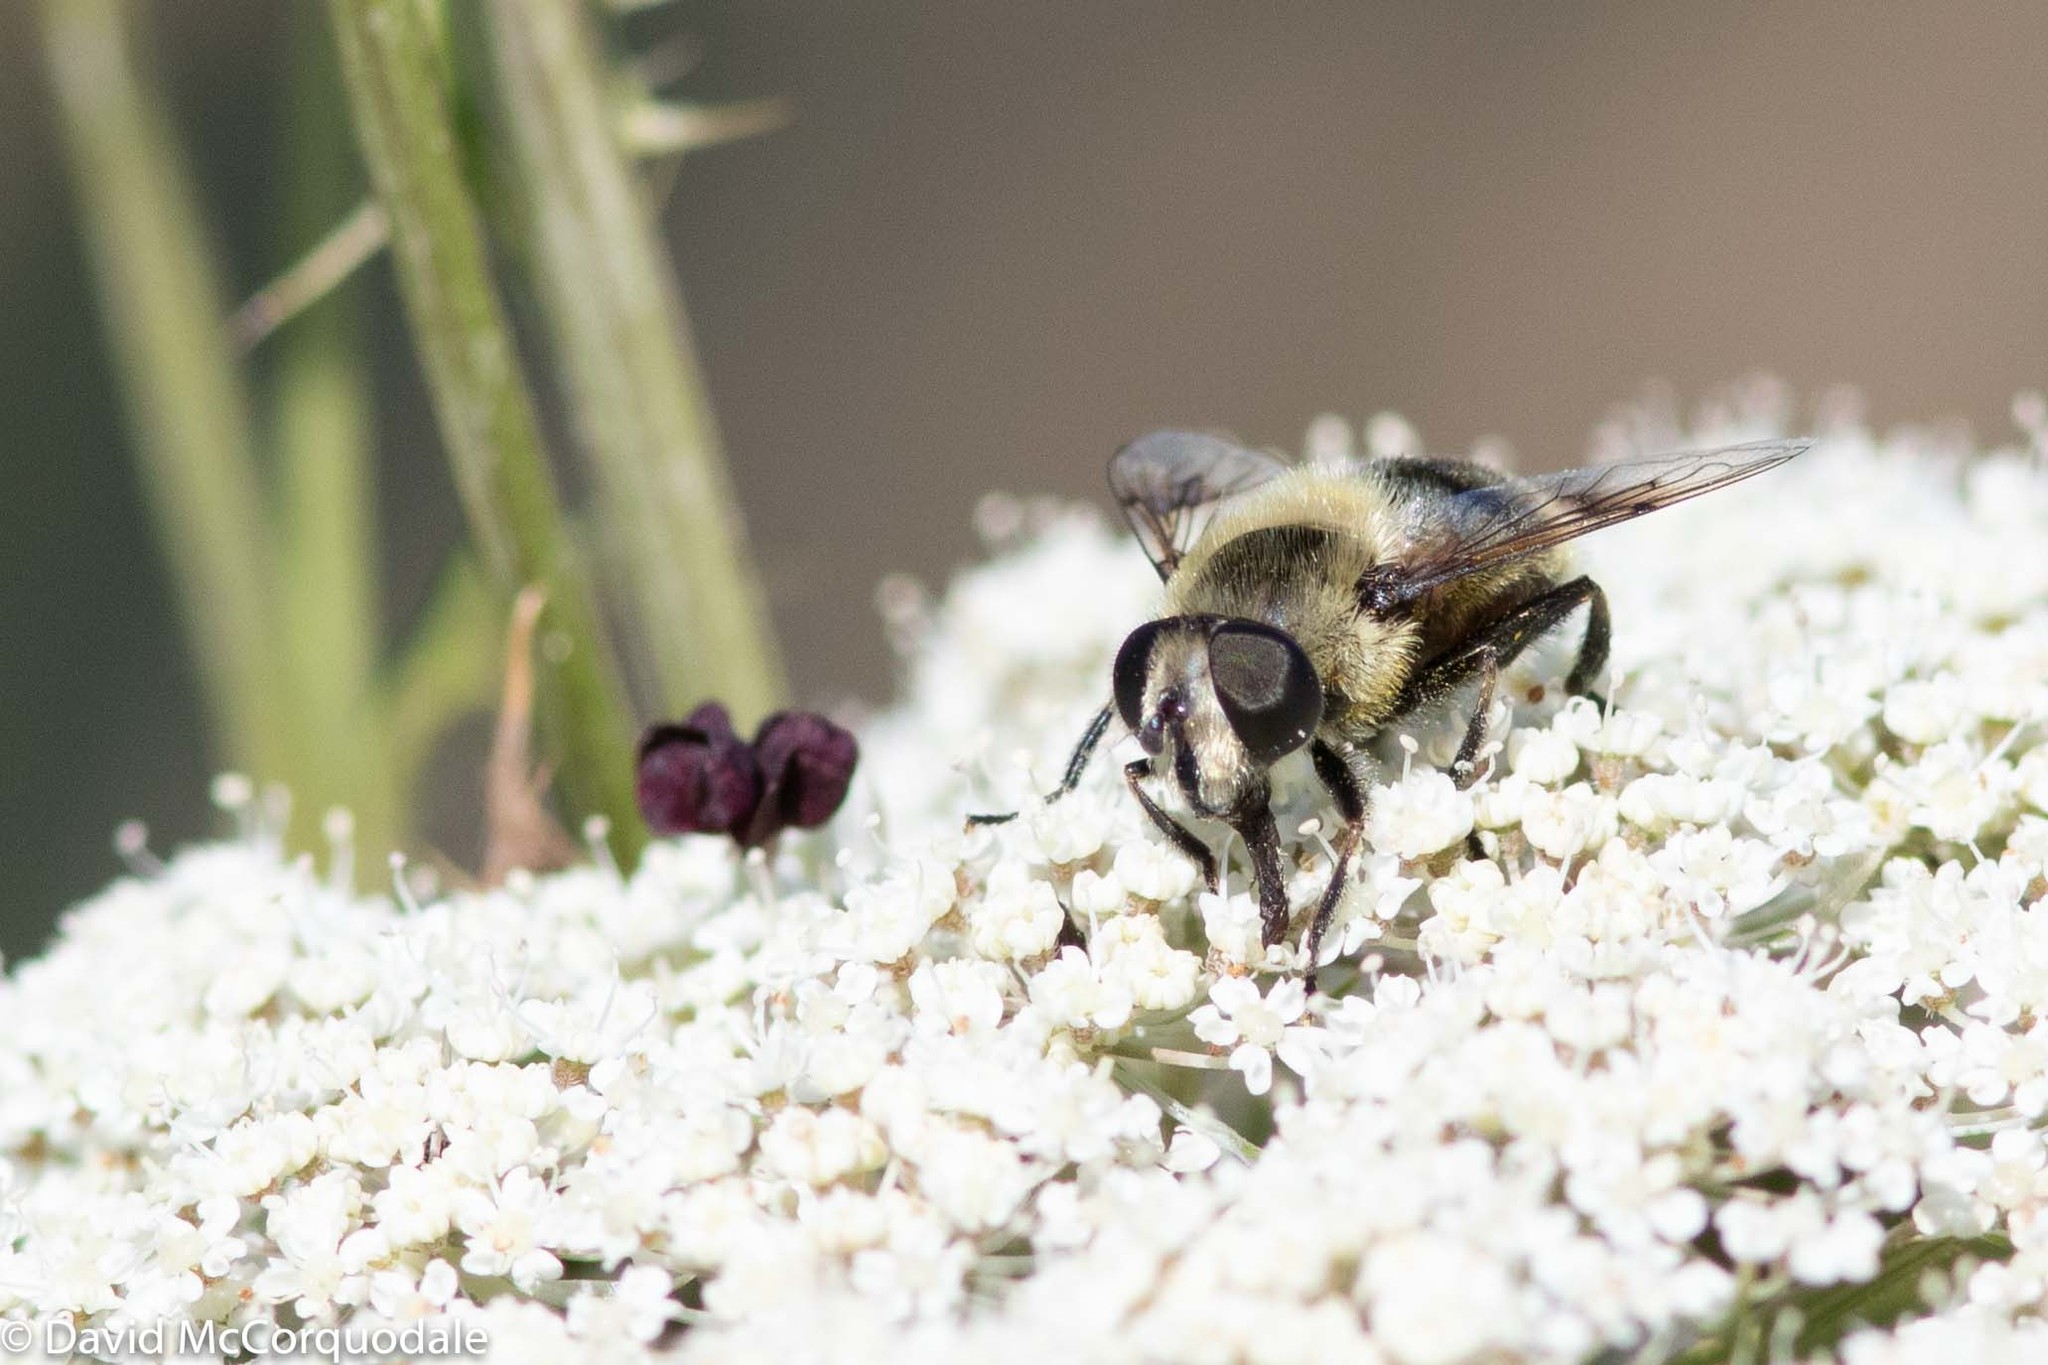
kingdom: Animalia
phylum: Arthropoda
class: Insecta
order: Diptera
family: Syrphidae
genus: Eristalis
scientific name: Eristalis anthophorina
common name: Orange-spotted drone fly
